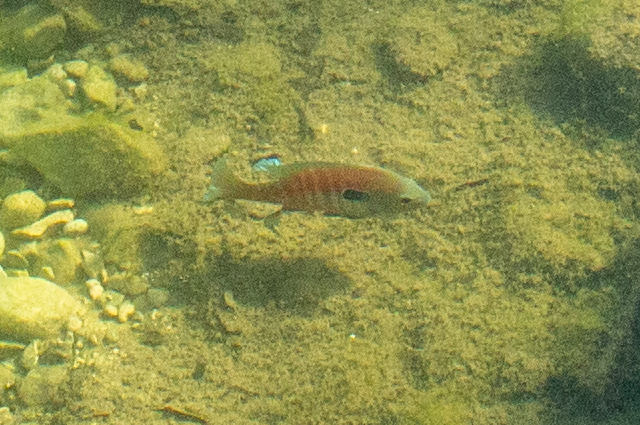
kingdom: Animalia
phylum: Chordata
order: Perciformes
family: Centrarchidae
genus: Lepomis
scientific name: Lepomis aquilensis
